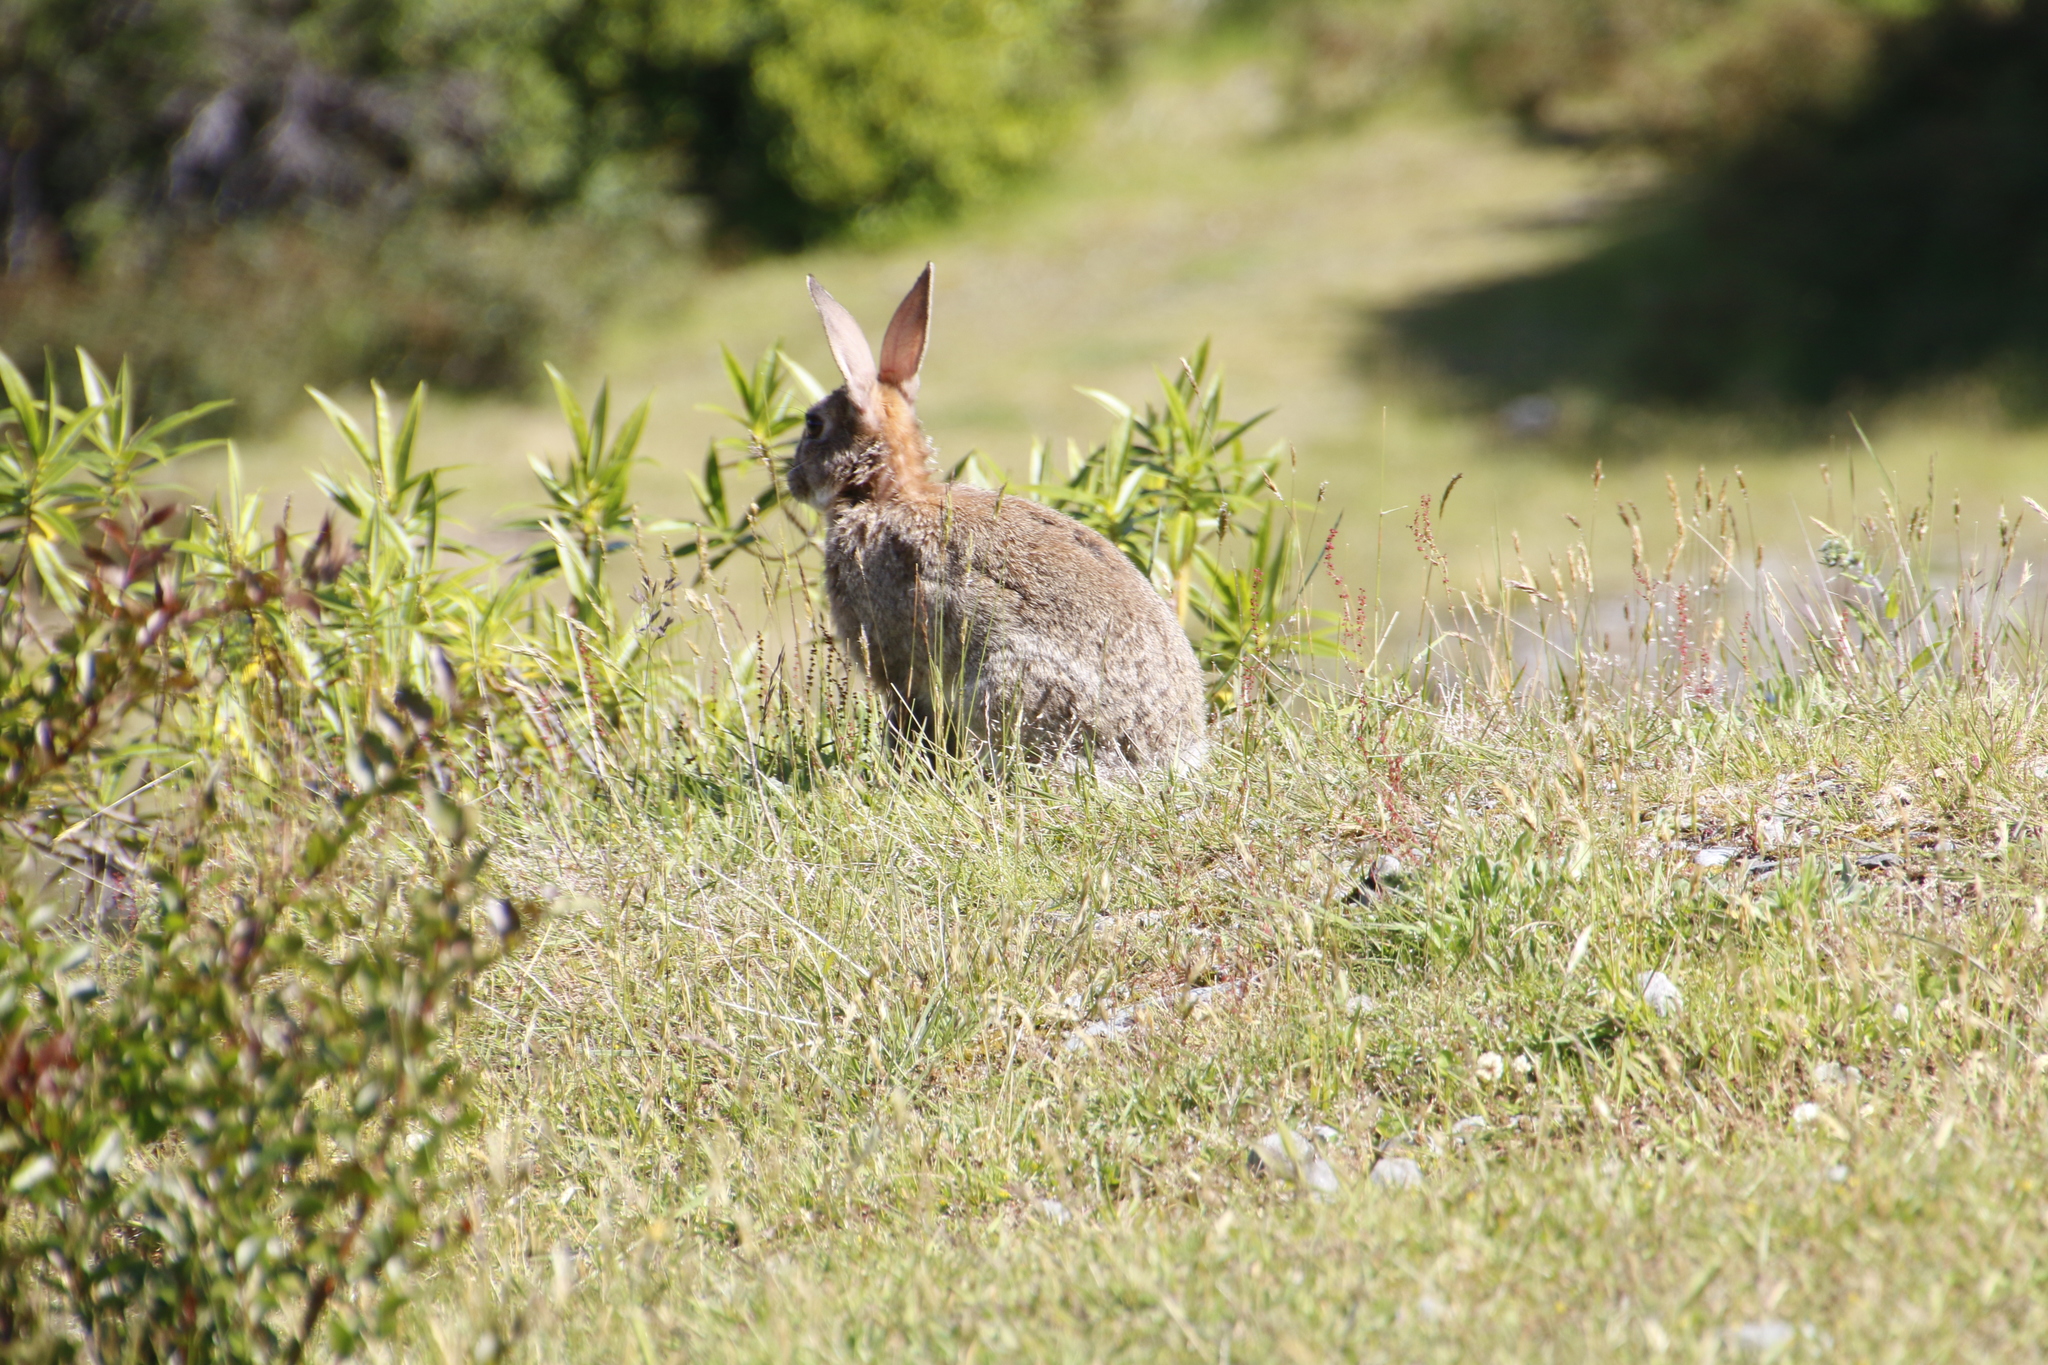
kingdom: Animalia
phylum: Chordata
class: Mammalia
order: Lagomorpha
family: Leporidae
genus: Oryctolagus
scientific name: Oryctolagus cuniculus
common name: European rabbit
